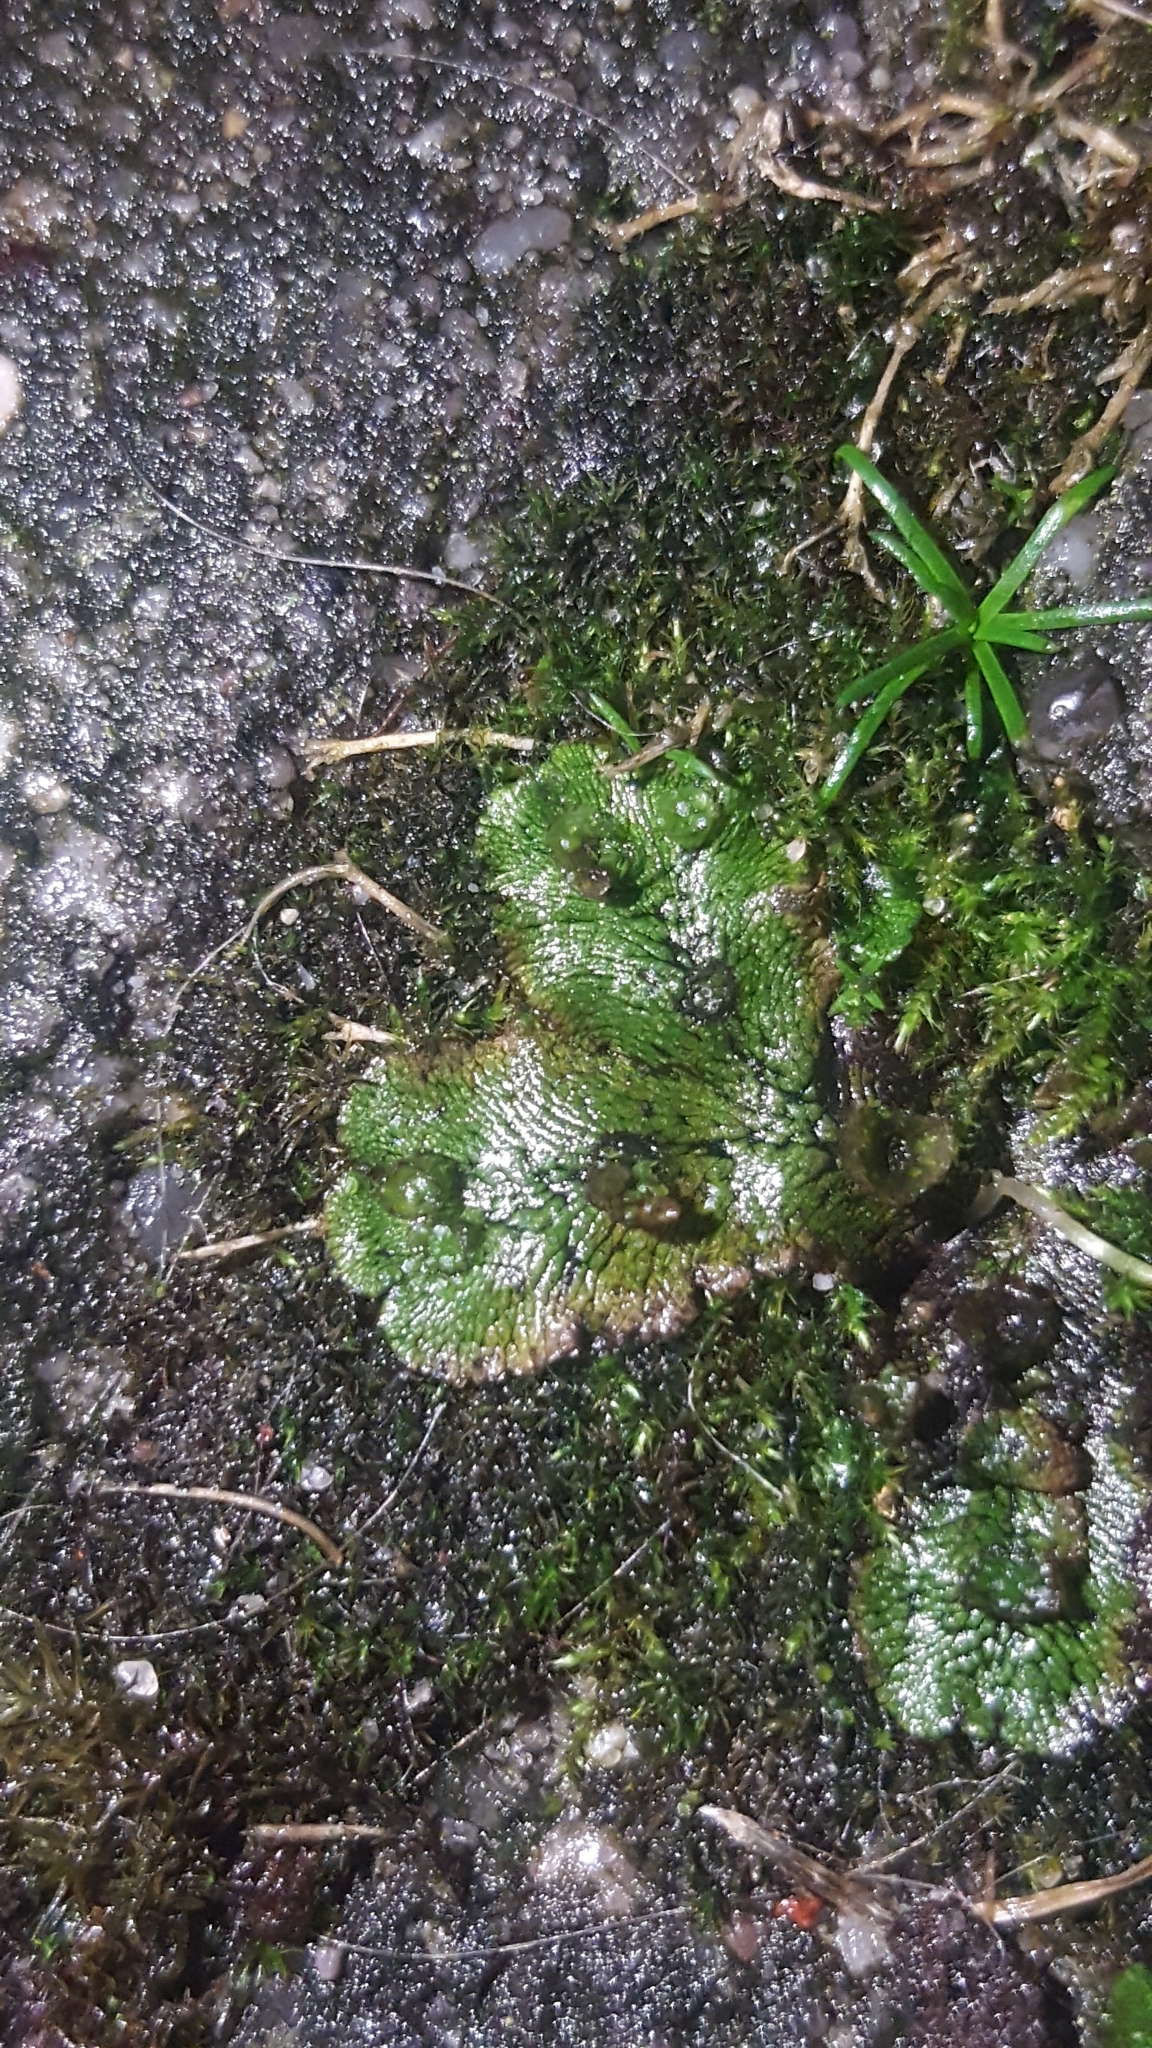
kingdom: Plantae
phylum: Marchantiophyta
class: Marchantiopsida
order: Marchantiales
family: Marchantiaceae
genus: Marchantia
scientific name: Marchantia polymorpha
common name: Common liverwort
